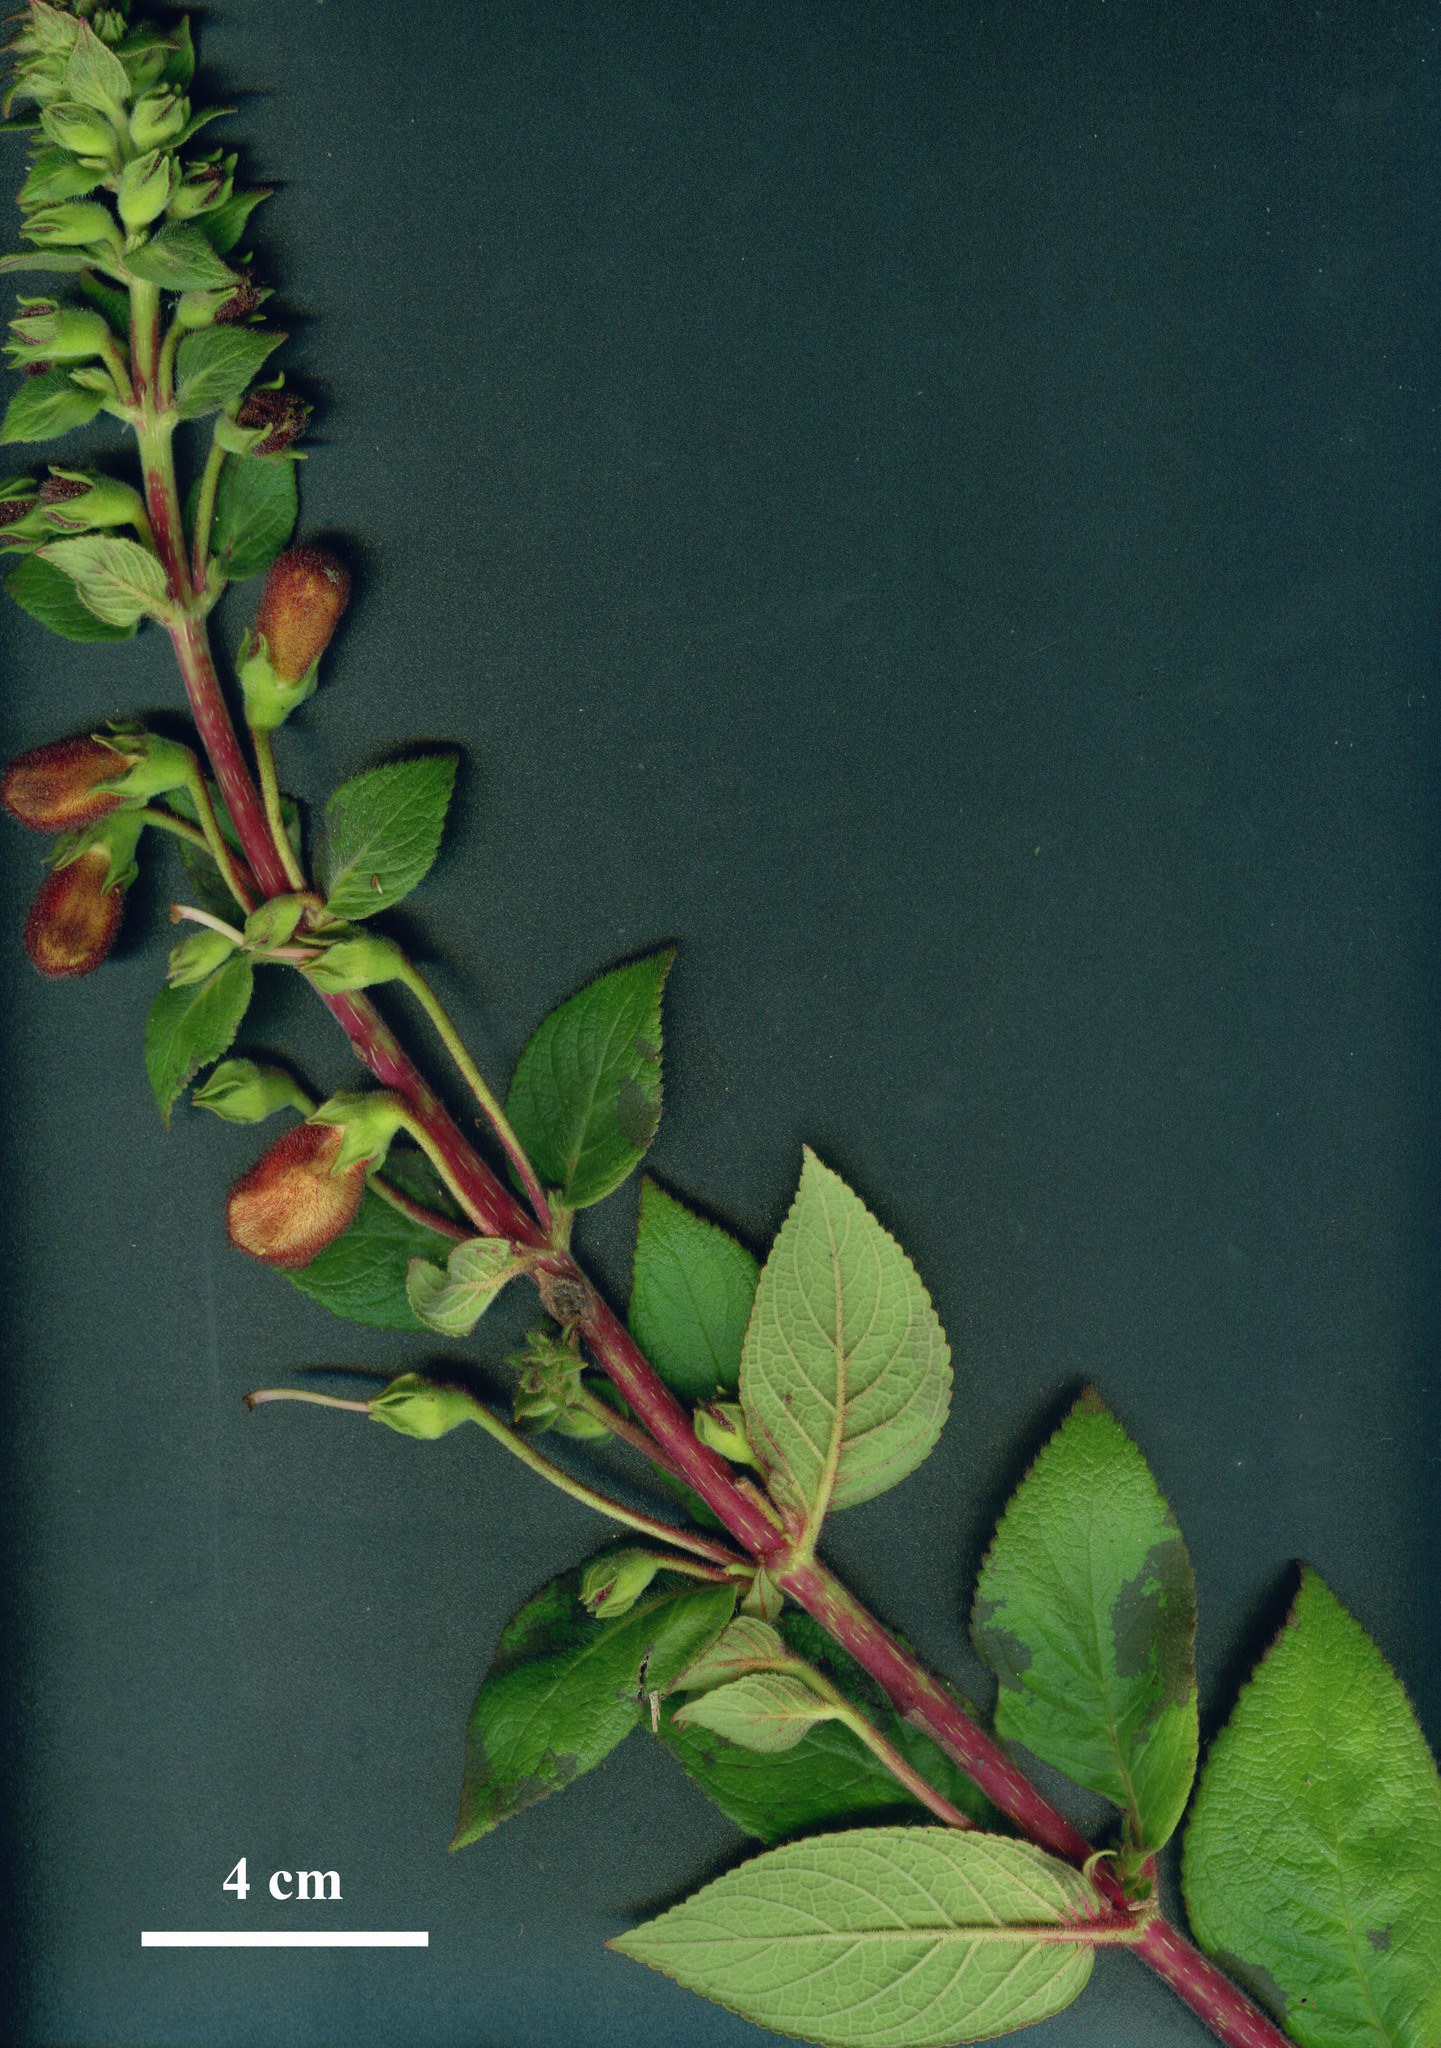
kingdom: Plantae
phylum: Tracheophyta
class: Magnoliopsida
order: Lamiales
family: Gesneriaceae
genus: Kohleria
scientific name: Kohleria allenii
